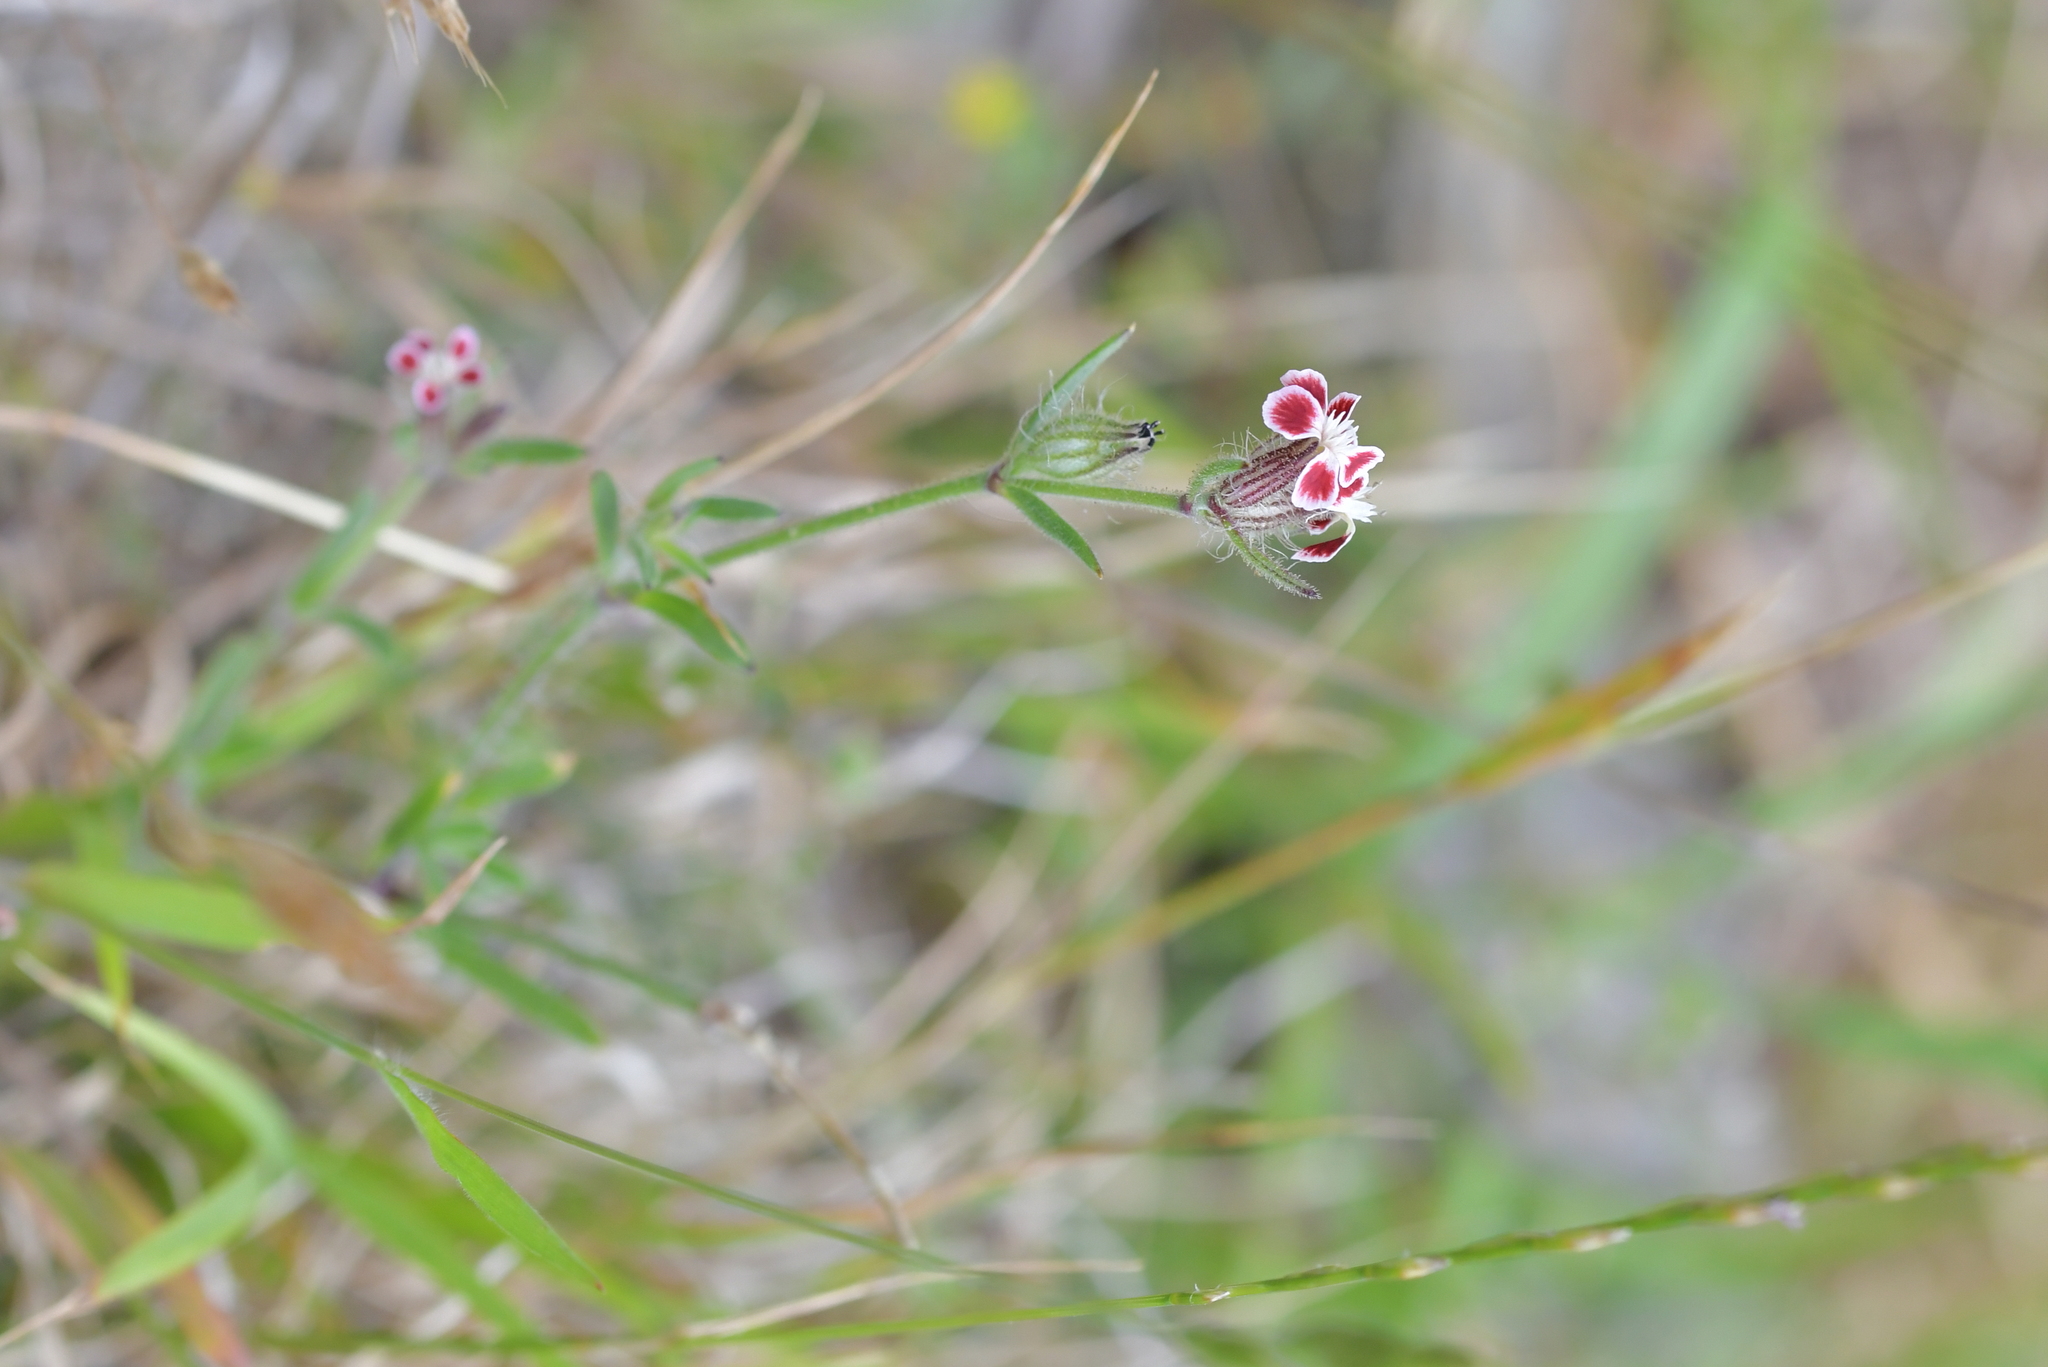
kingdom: Plantae
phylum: Tracheophyta
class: Magnoliopsida
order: Caryophyllales
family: Caryophyllaceae
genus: Silene
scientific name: Silene gallica
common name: Small-flowered catchfly
